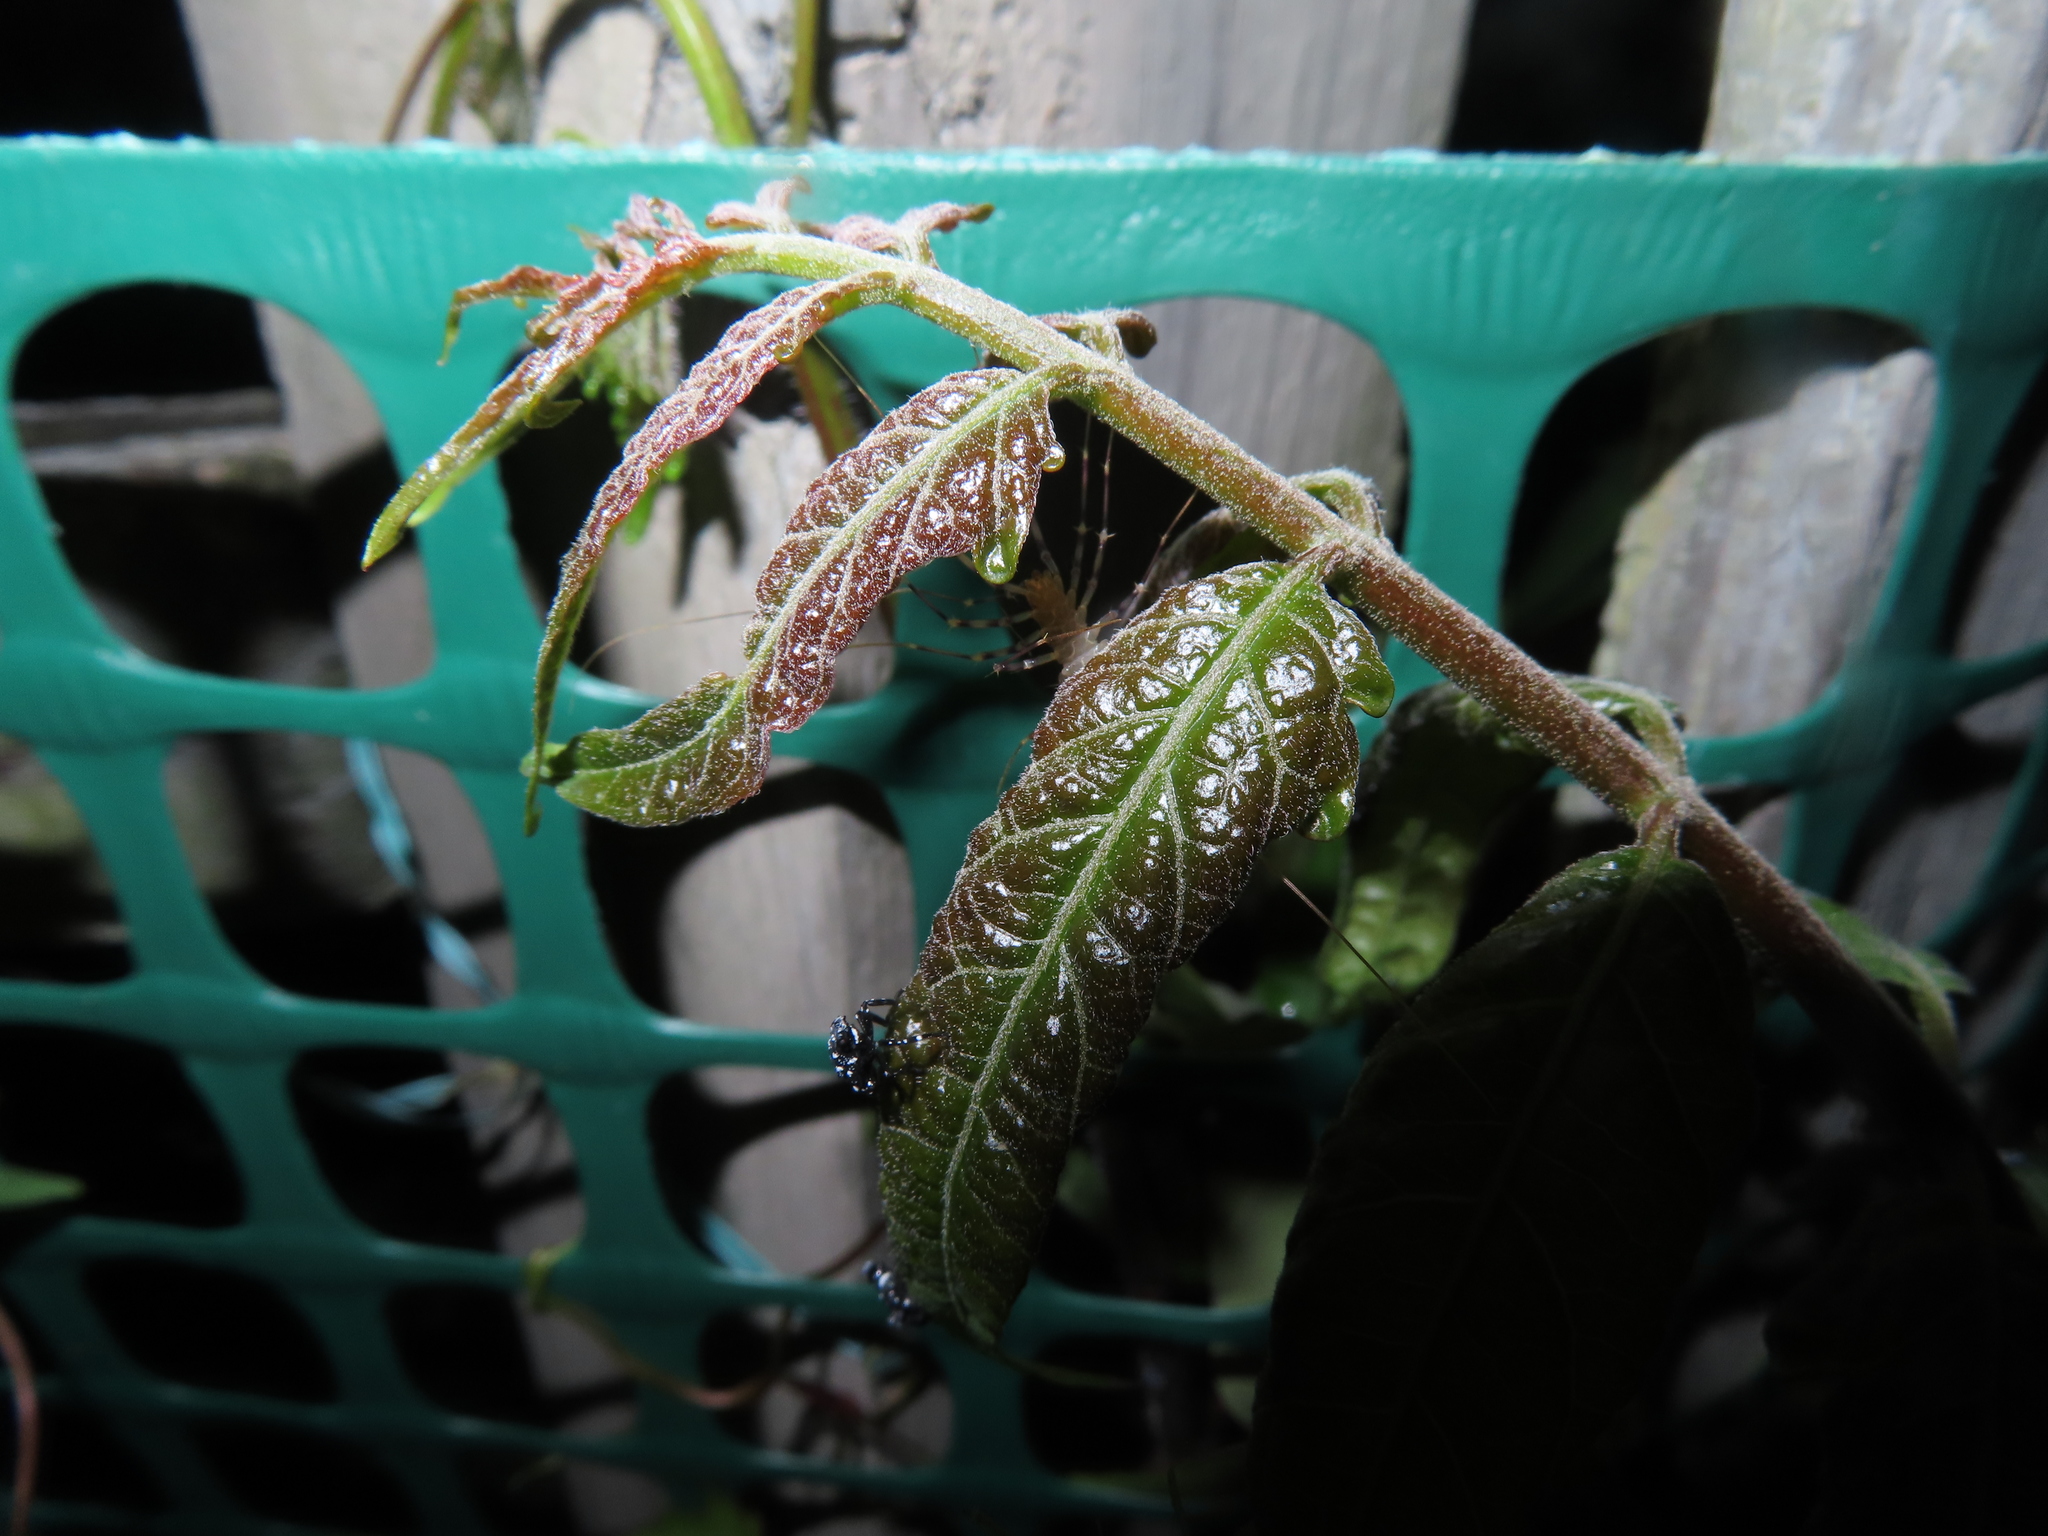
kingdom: Animalia
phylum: Arthropoda
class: Chilopoda
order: Scutigeromorpha
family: Scutigeridae
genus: Scutigera
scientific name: Scutigera coleoptrata
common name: House centipede
